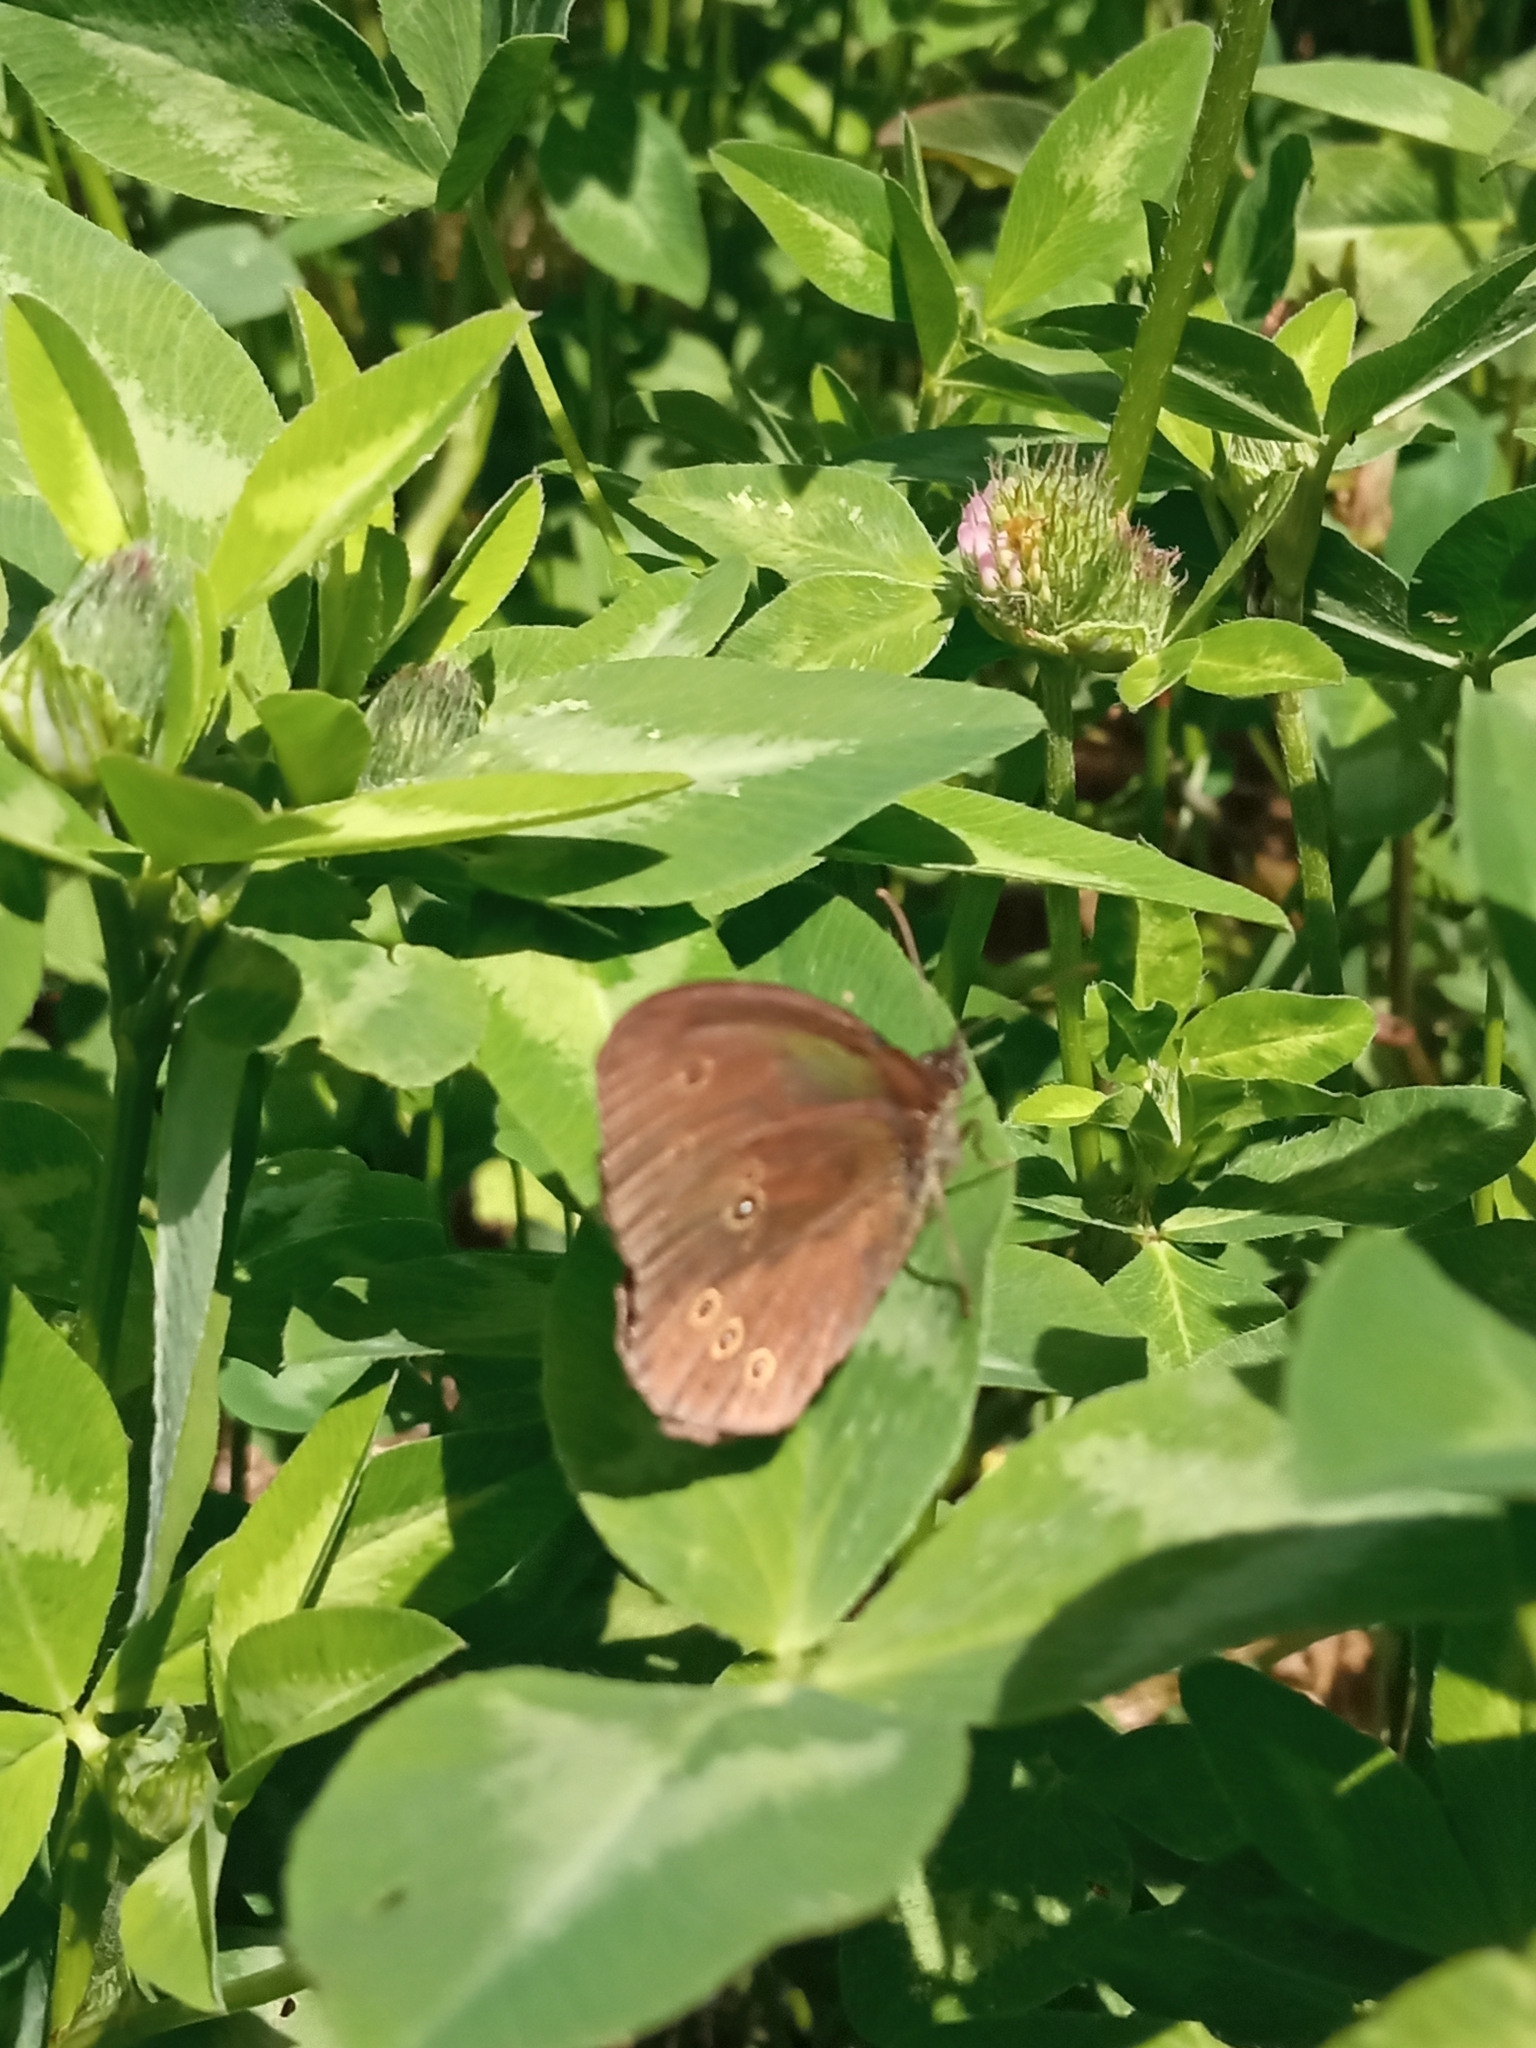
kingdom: Animalia
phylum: Arthropoda
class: Insecta
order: Lepidoptera
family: Nymphalidae
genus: Aphantopus
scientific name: Aphantopus hyperantus
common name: Ringlet
